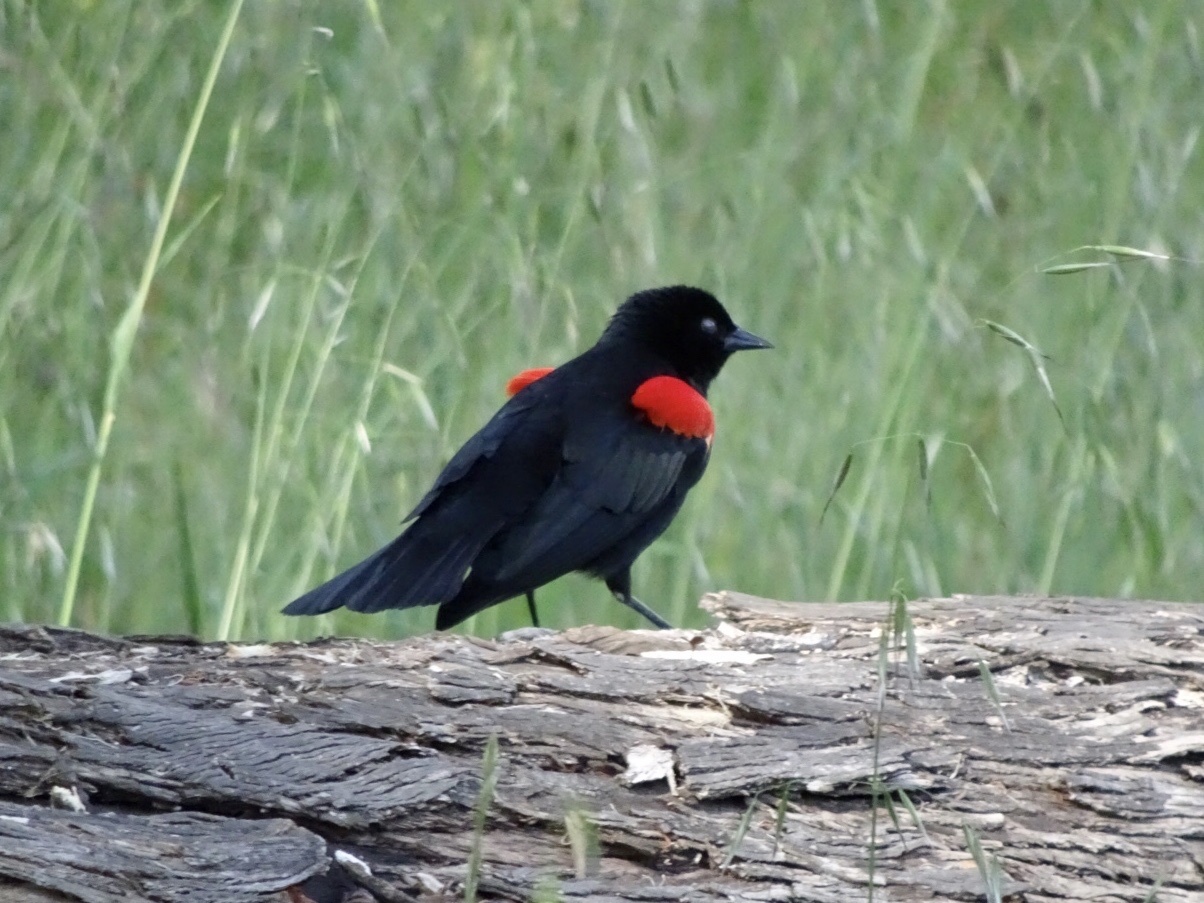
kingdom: Animalia
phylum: Chordata
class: Aves
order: Passeriformes
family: Icteridae
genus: Agelaius
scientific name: Agelaius phoeniceus
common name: Red-winged blackbird
